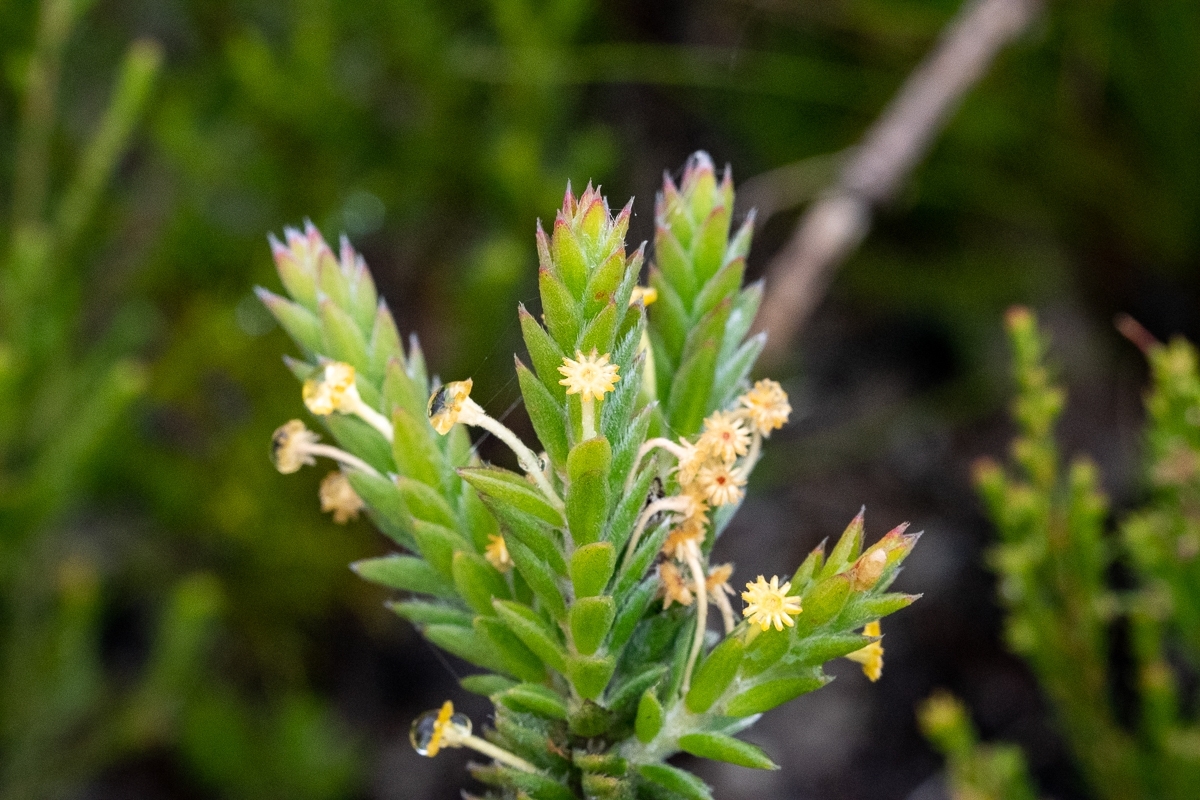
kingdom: Plantae
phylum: Tracheophyta
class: Magnoliopsida
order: Malvales
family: Thymelaeaceae
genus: Struthiola
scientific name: Struthiola tomentosa
